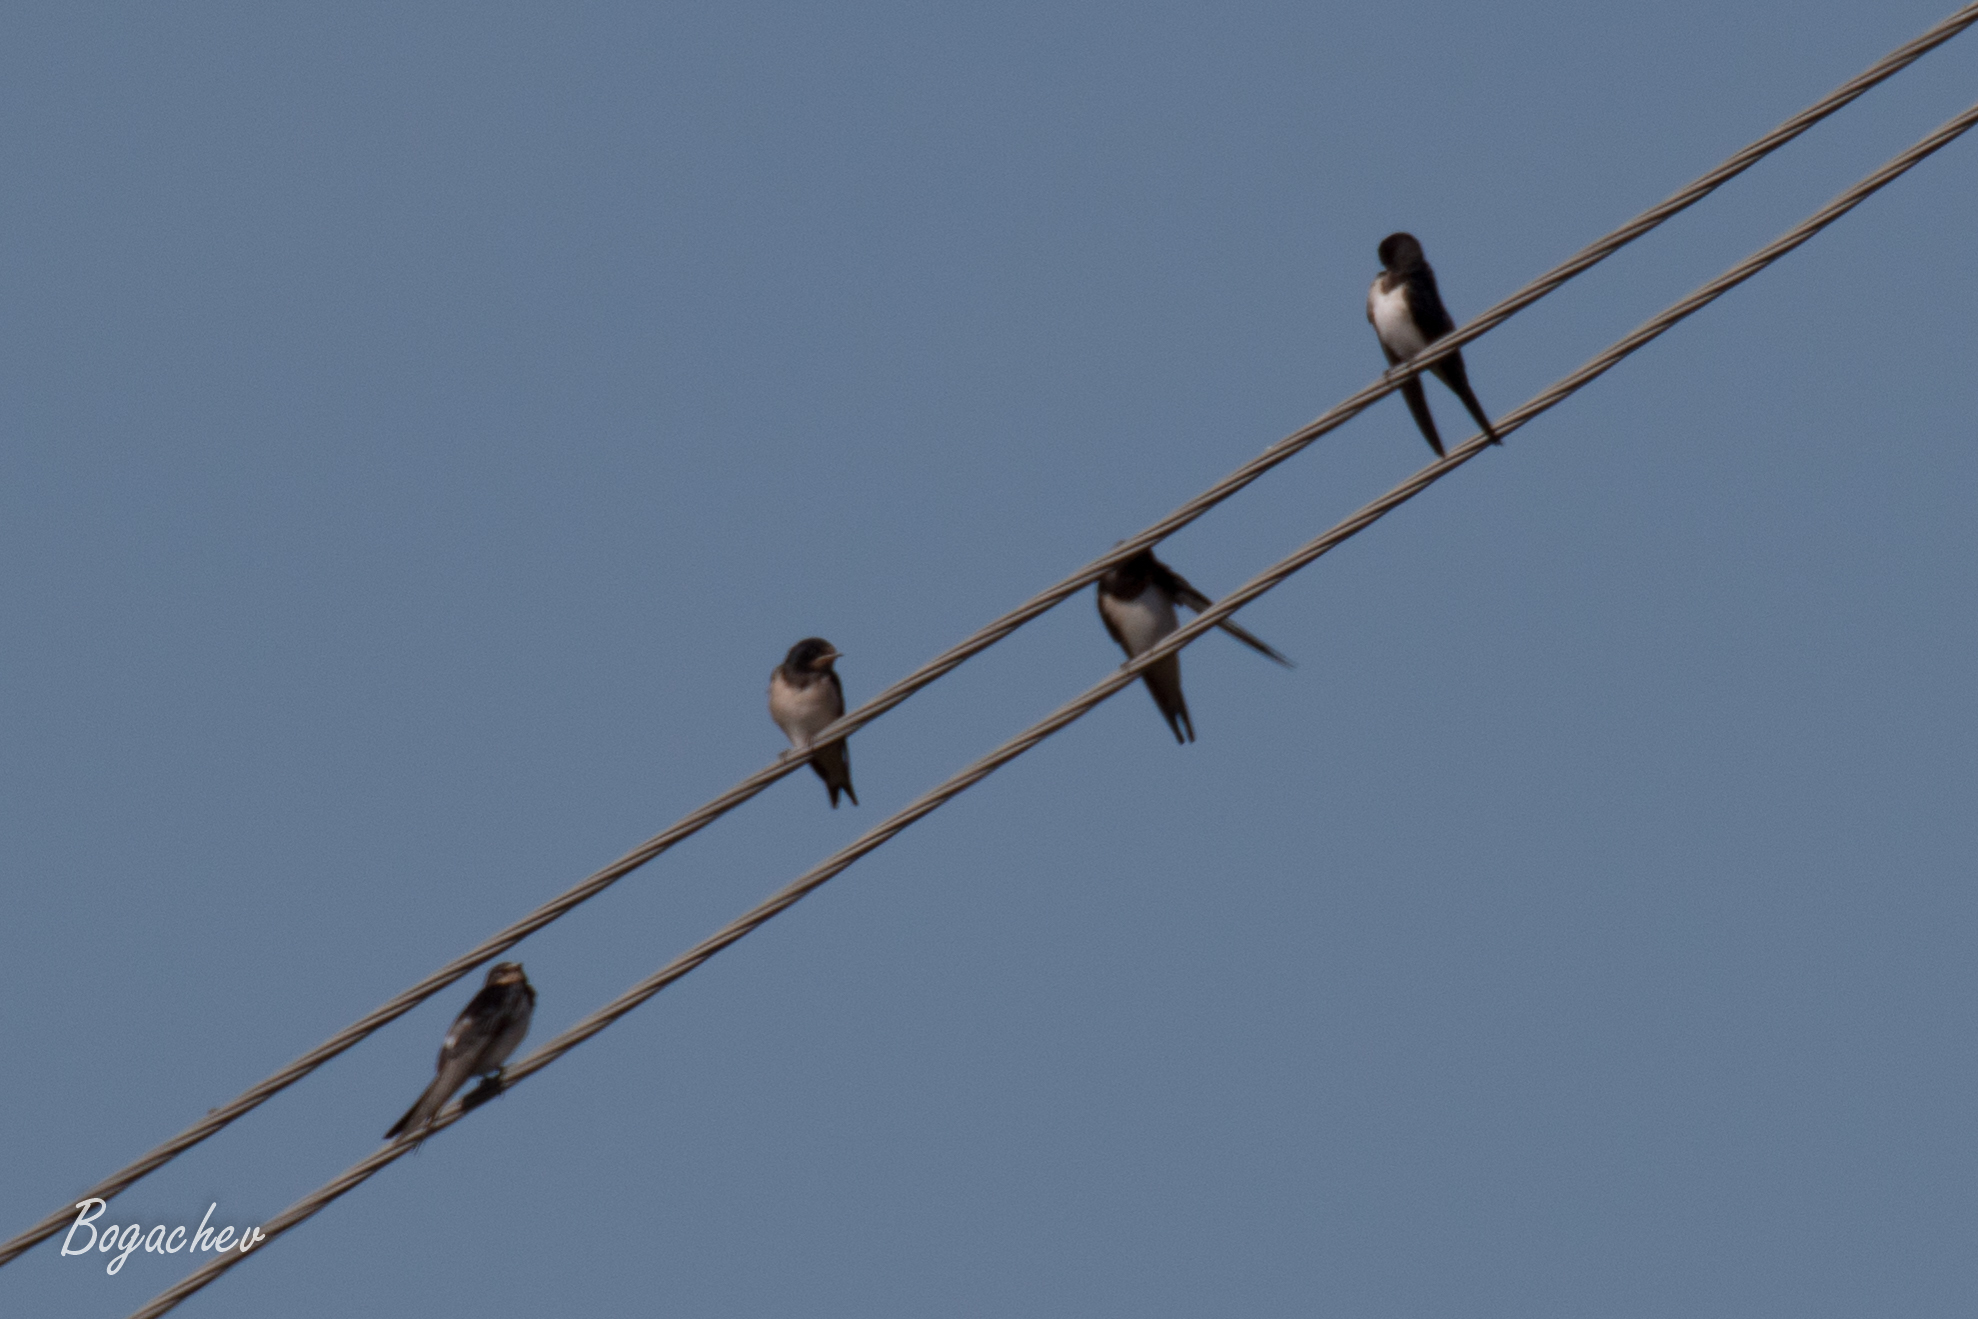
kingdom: Animalia
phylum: Chordata
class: Aves
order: Passeriformes
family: Hirundinidae
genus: Hirundo
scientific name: Hirundo rustica
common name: Barn swallow
